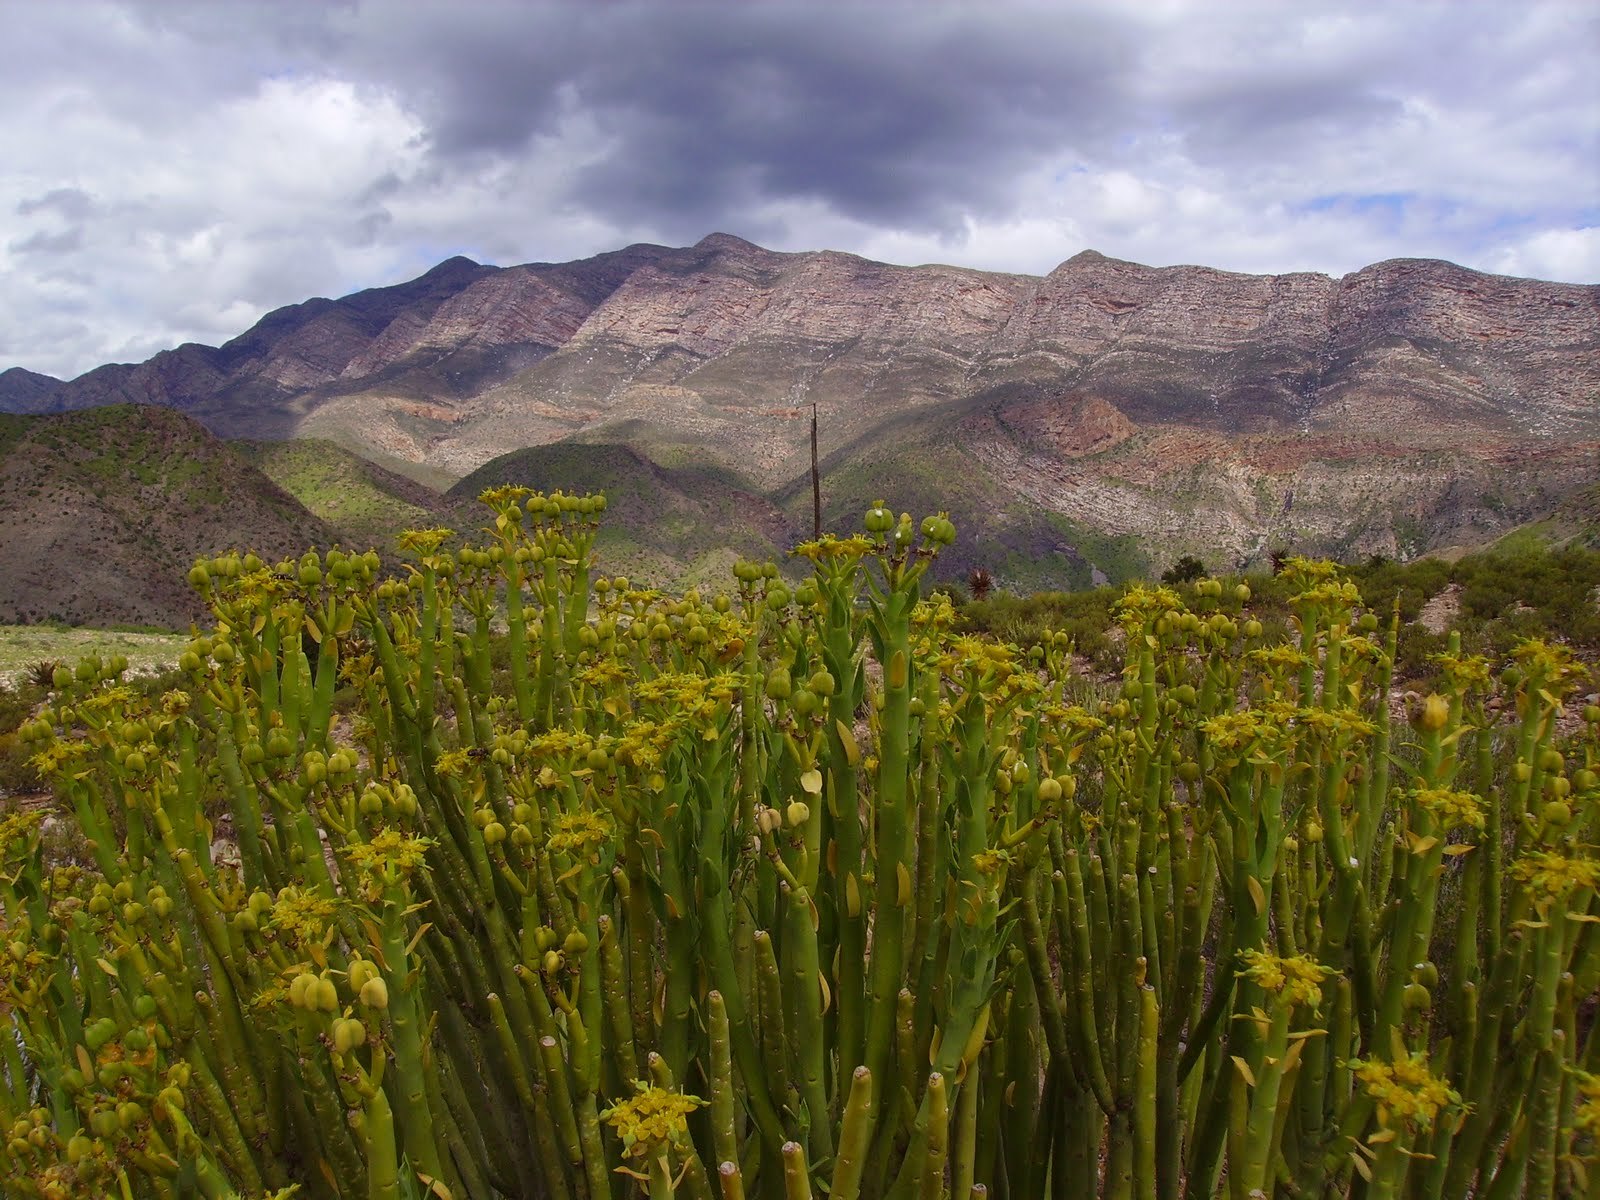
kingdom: Plantae
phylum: Tracheophyta
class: Magnoliopsida
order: Malpighiales
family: Euphorbiaceae
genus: Euphorbia
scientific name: Euphorbia mauritanica
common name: Jackal's-food
